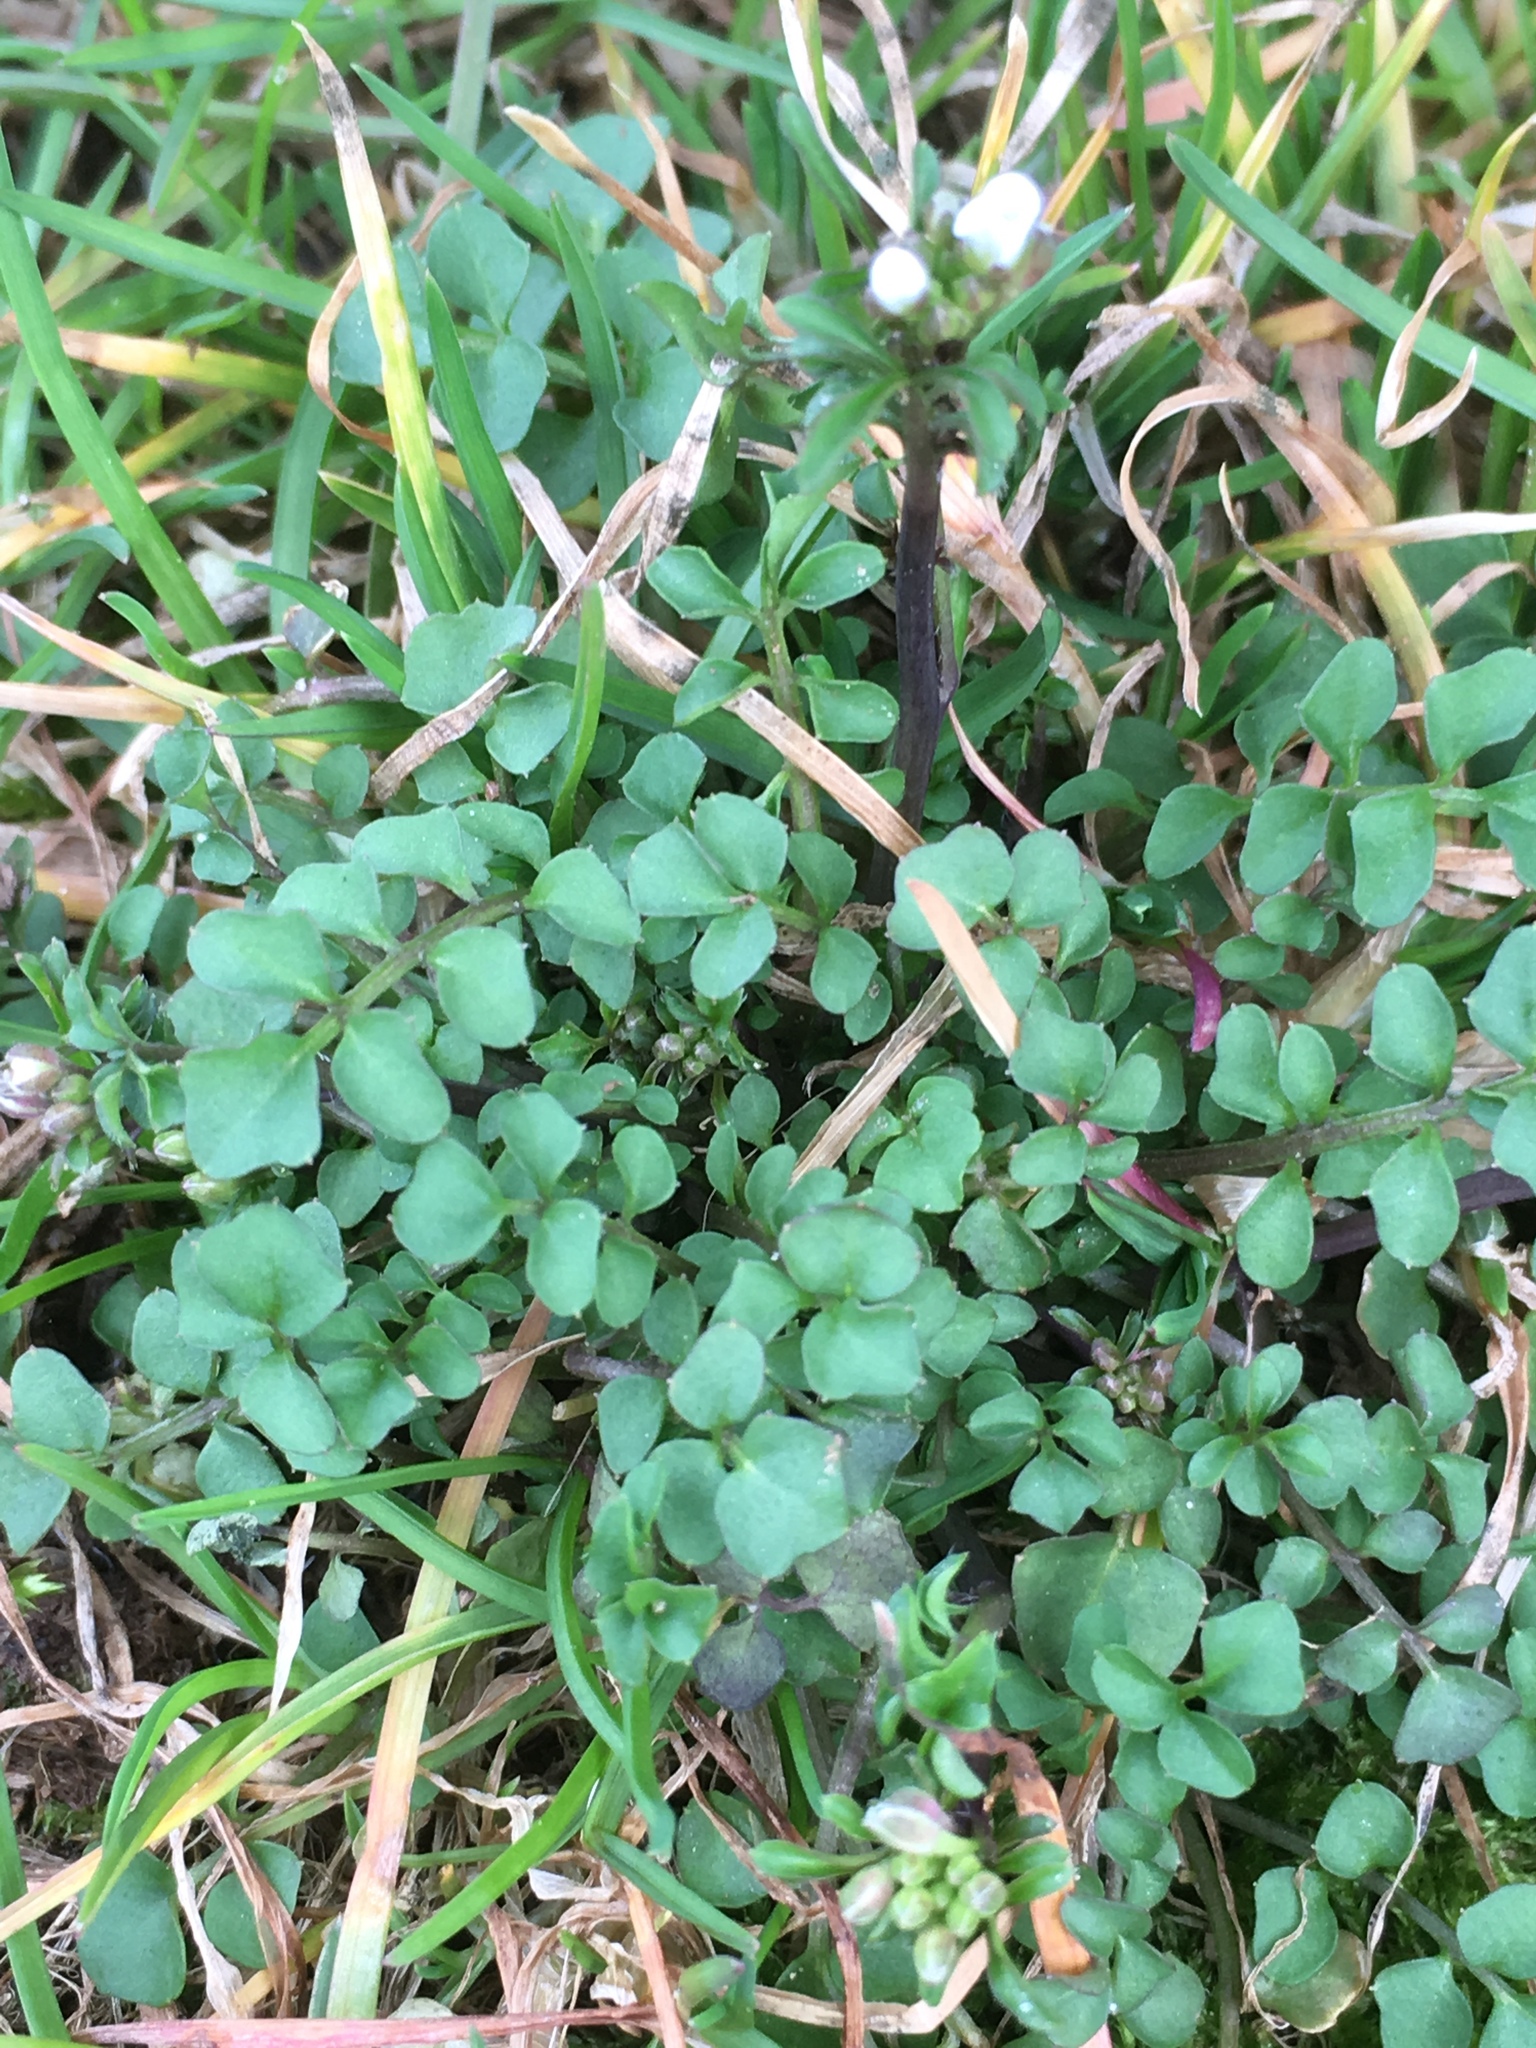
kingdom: Plantae
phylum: Tracheophyta
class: Magnoliopsida
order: Brassicales
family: Brassicaceae
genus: Cardamine
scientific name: Cardamine hirsuta
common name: Hairy bittercress
